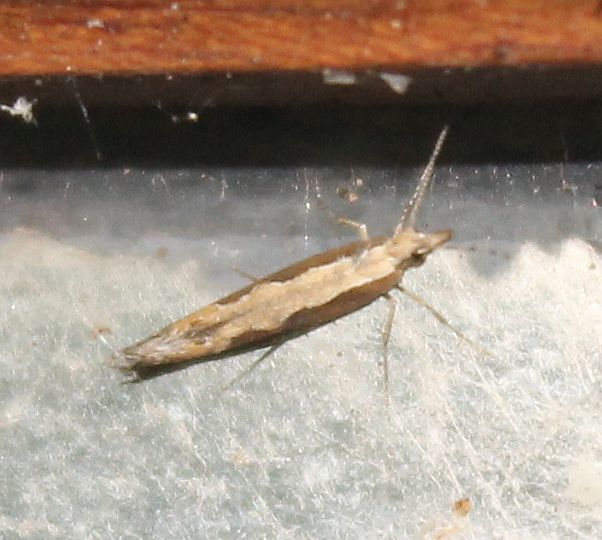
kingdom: Animalia
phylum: Arthropoda
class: Insecta
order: Lepidoptera
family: Plutellidae
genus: Plutella
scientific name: Plutella xylostella
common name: Diamond-back moth
